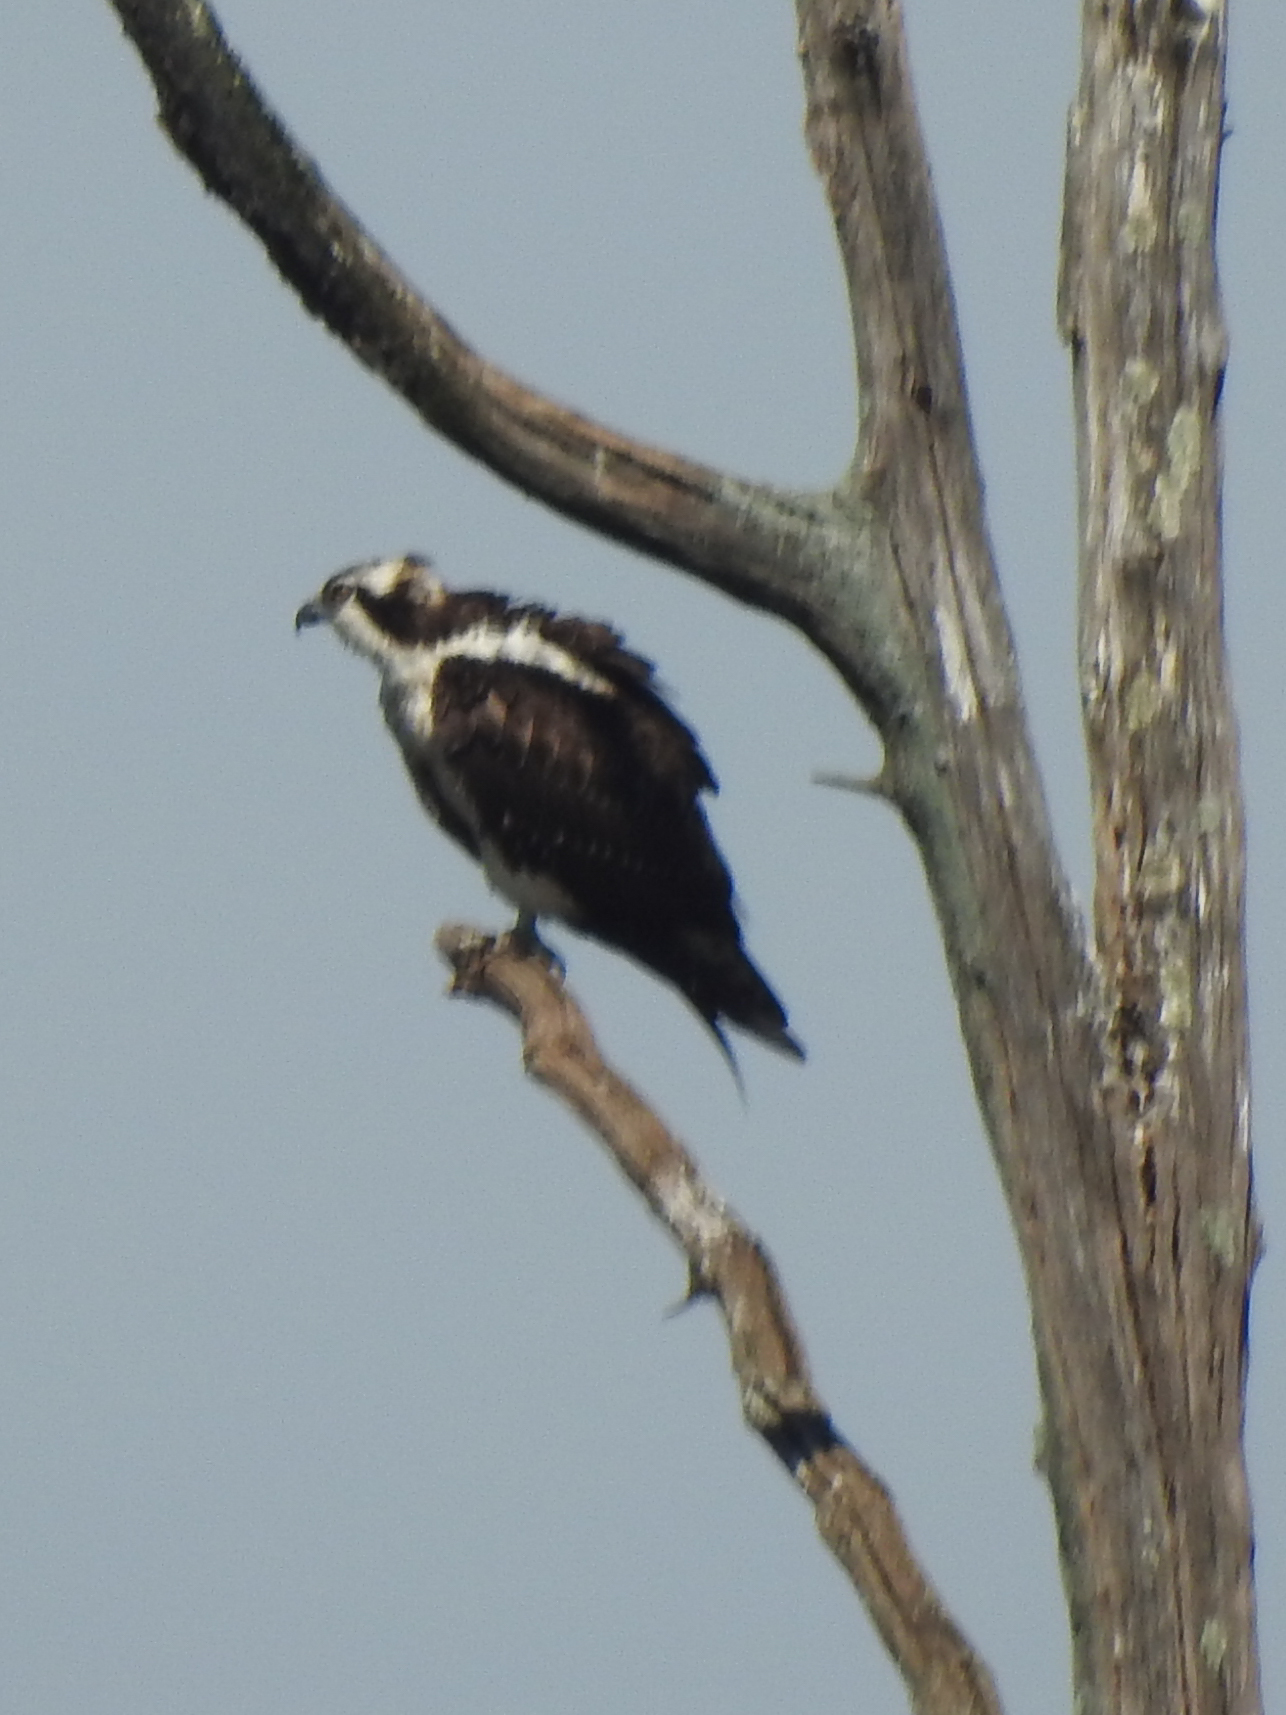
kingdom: Animalia
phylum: Chordata
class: Aves
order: Accipitriformes
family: Pandionidae
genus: Pandion
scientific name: Pandion haliaetus
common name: Osprey
